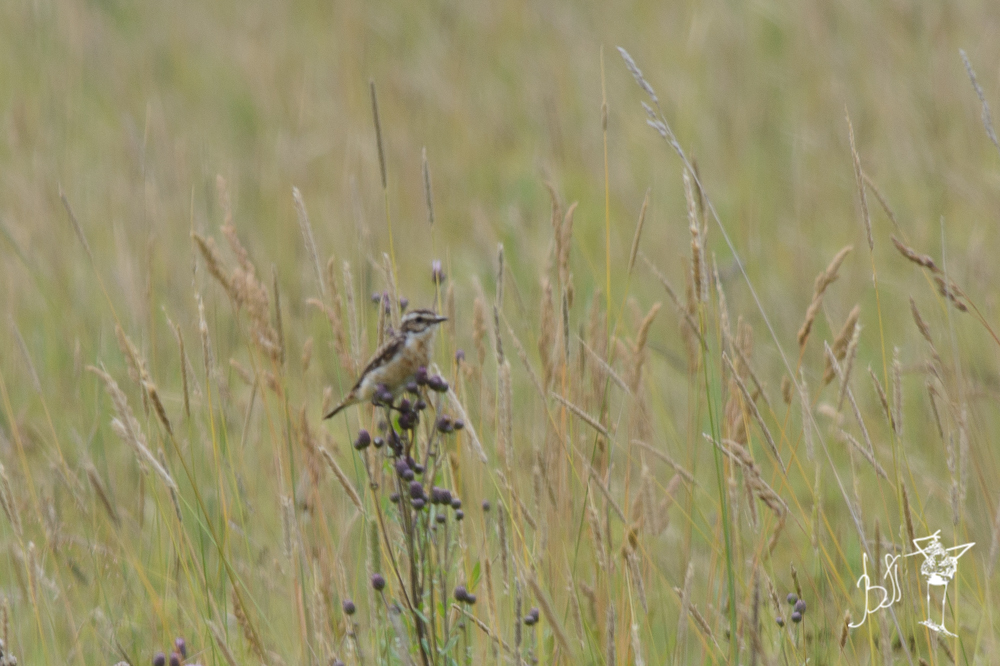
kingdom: Animalia
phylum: Chordata
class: Aves
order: Passeriformes
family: Muscicapidae
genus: Saxicola
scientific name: Saxicola rubetra
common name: Whinchat
